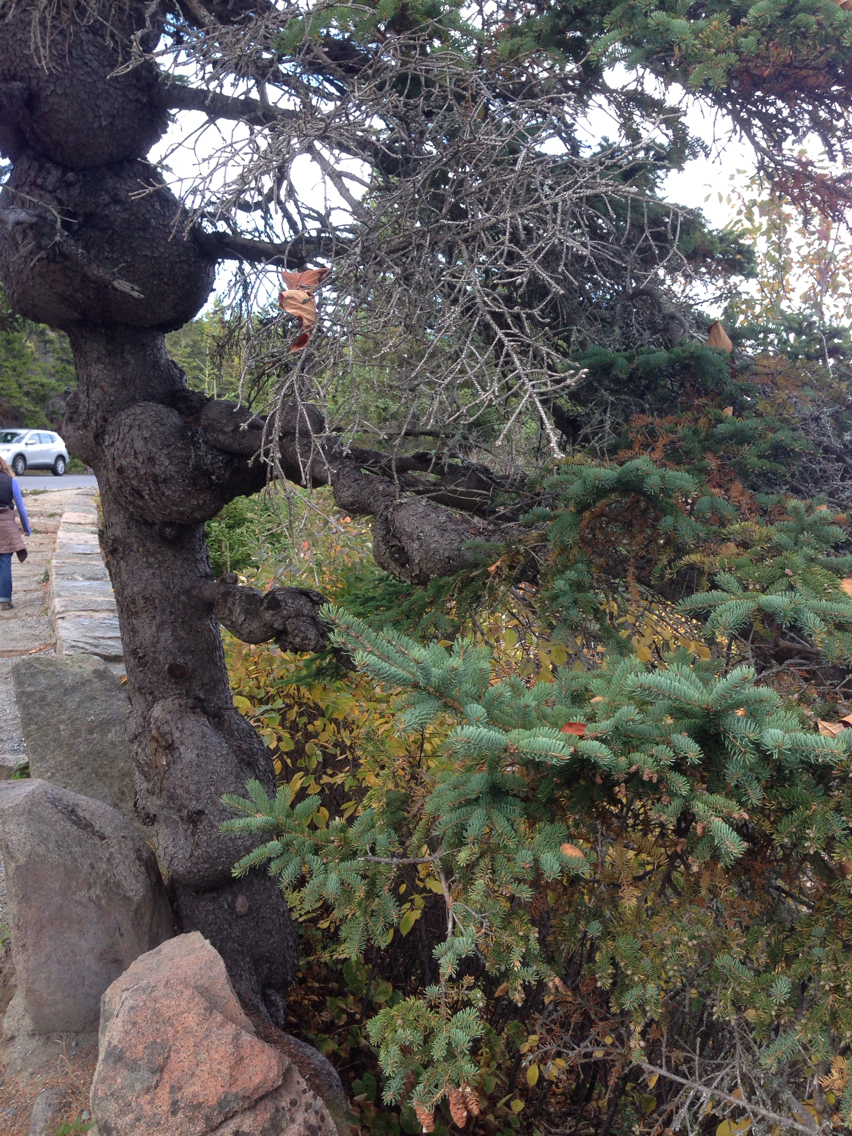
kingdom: Plantae
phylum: Tracheophyta
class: Pinopsida
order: Pinales
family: Pinaceae
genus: Picea
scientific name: Picea glauca
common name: White spruce
